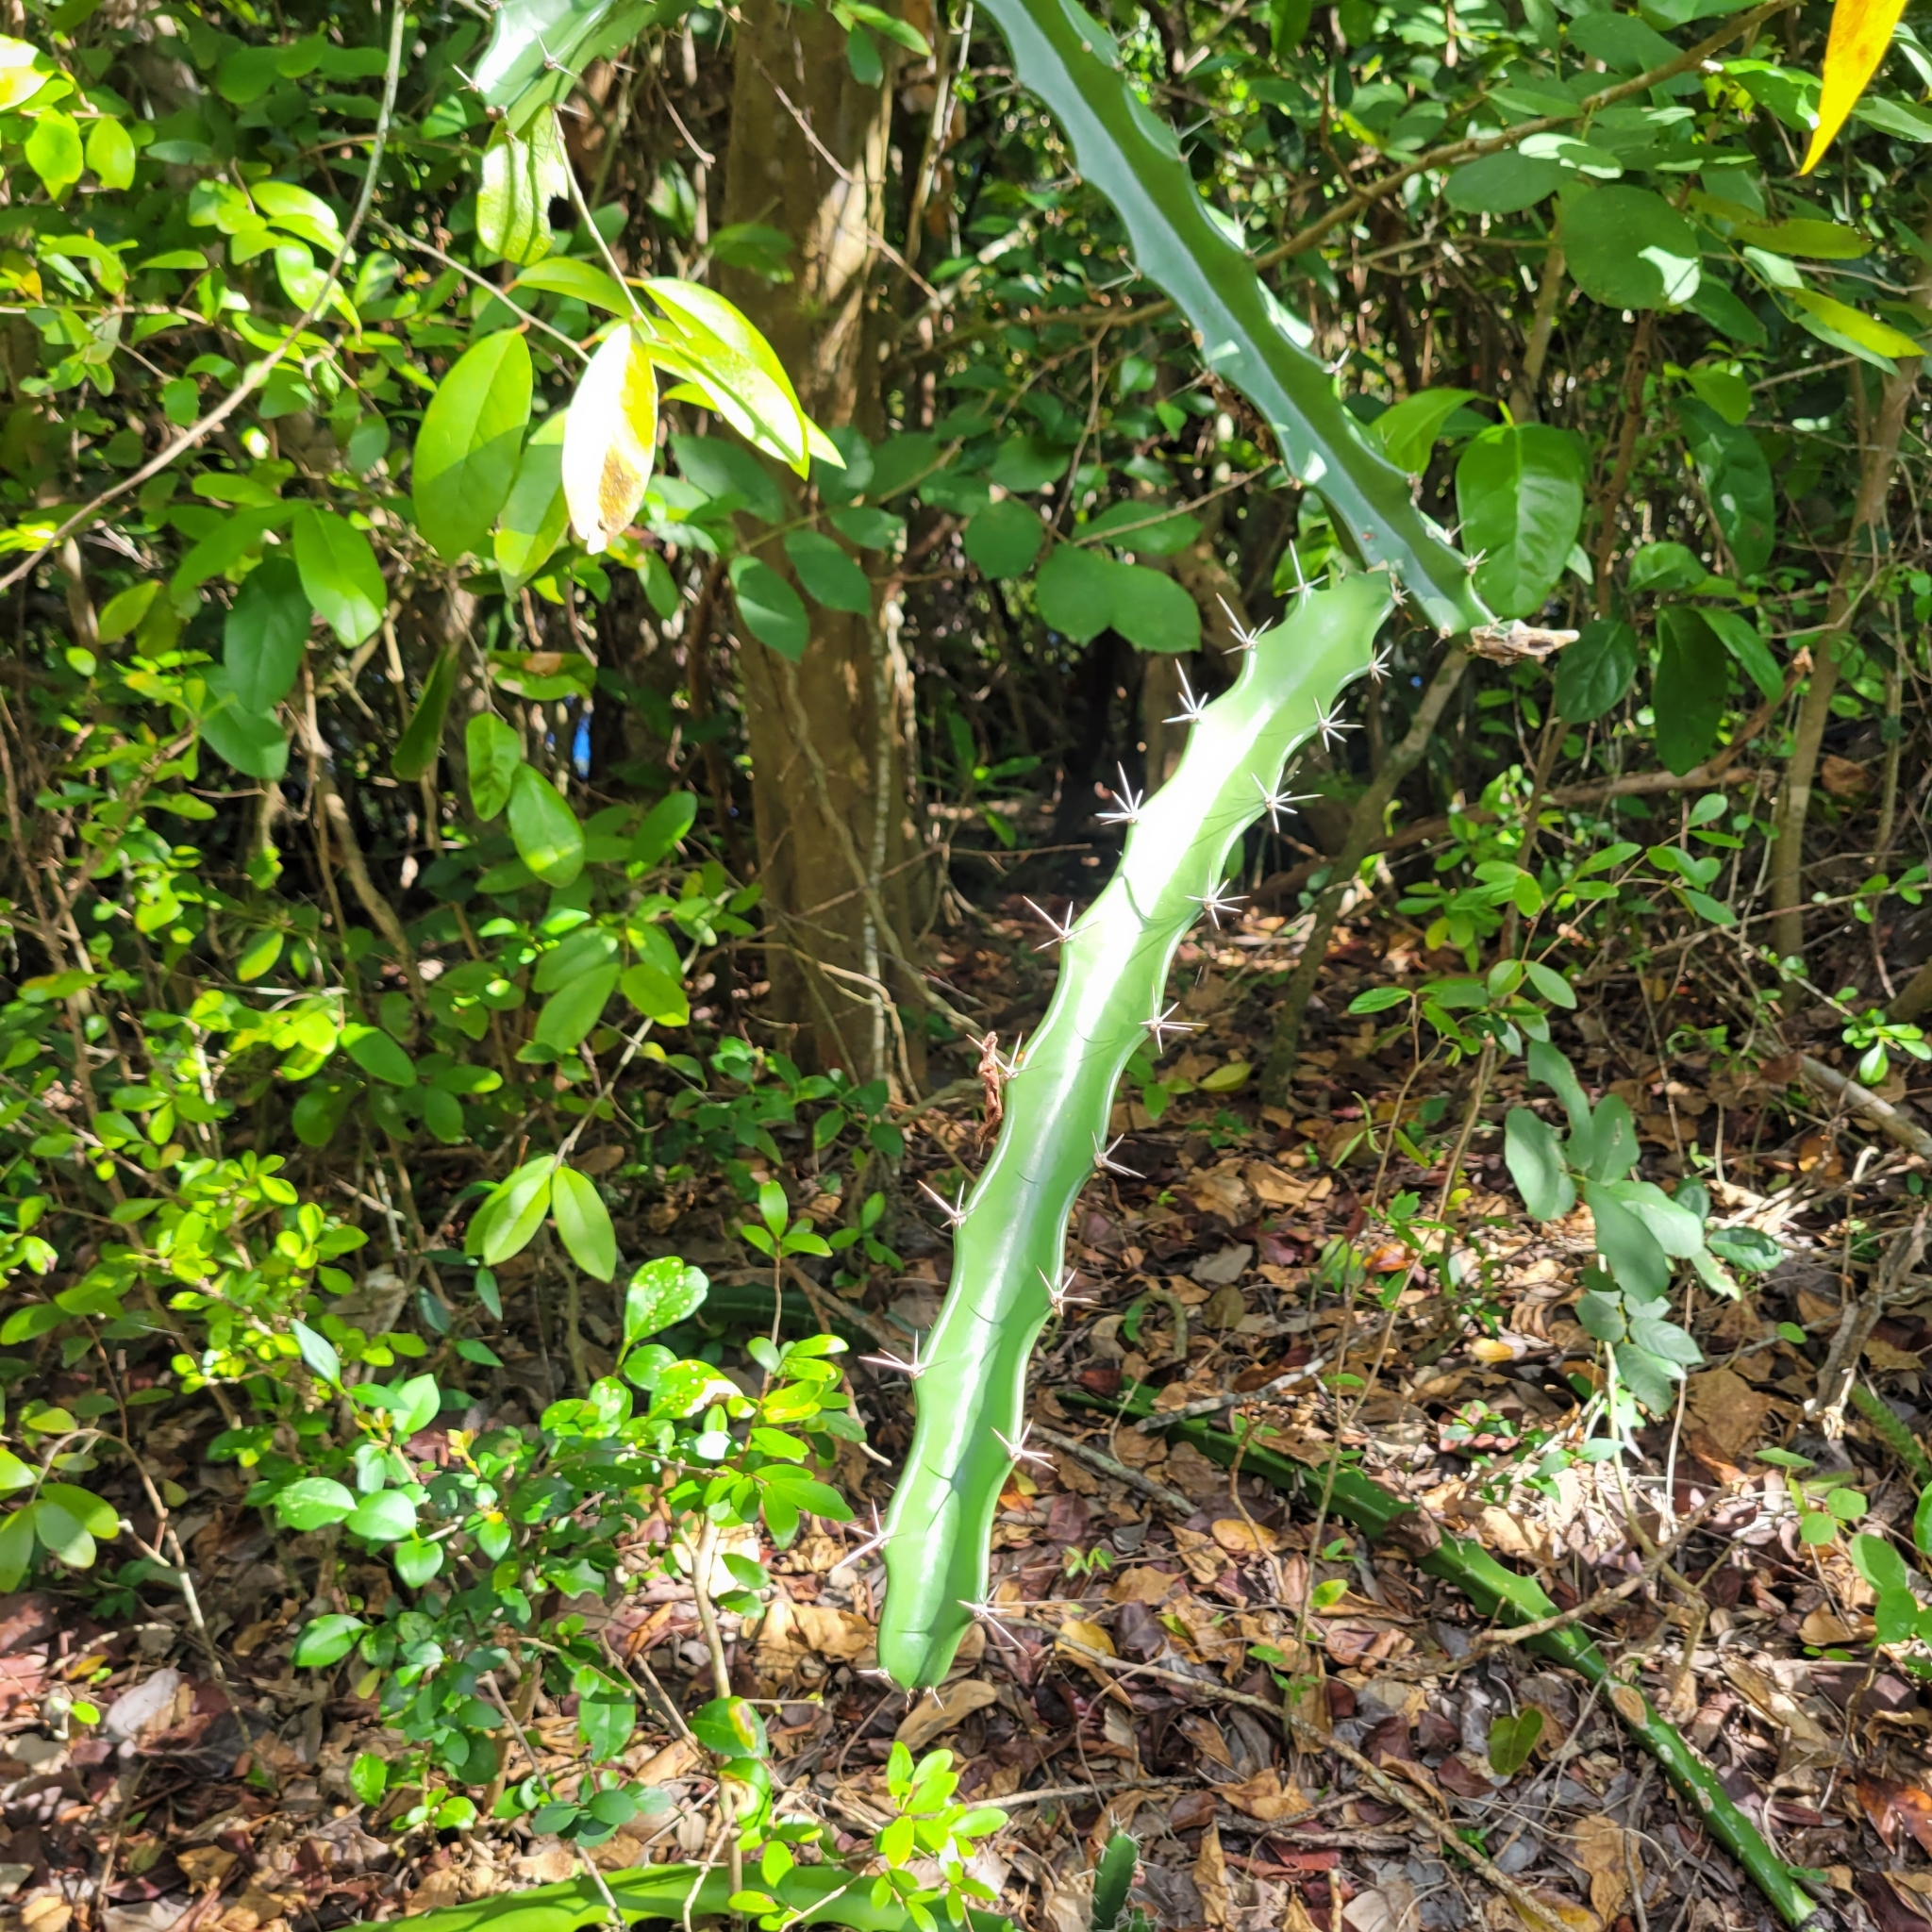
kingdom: Plantae
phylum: Tracheophyta
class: Magnoliopsida
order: Caryophyllales
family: Cactaceae
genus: Acanthocereus
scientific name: Acanthocereus tetragonus
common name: Triangle cactus
